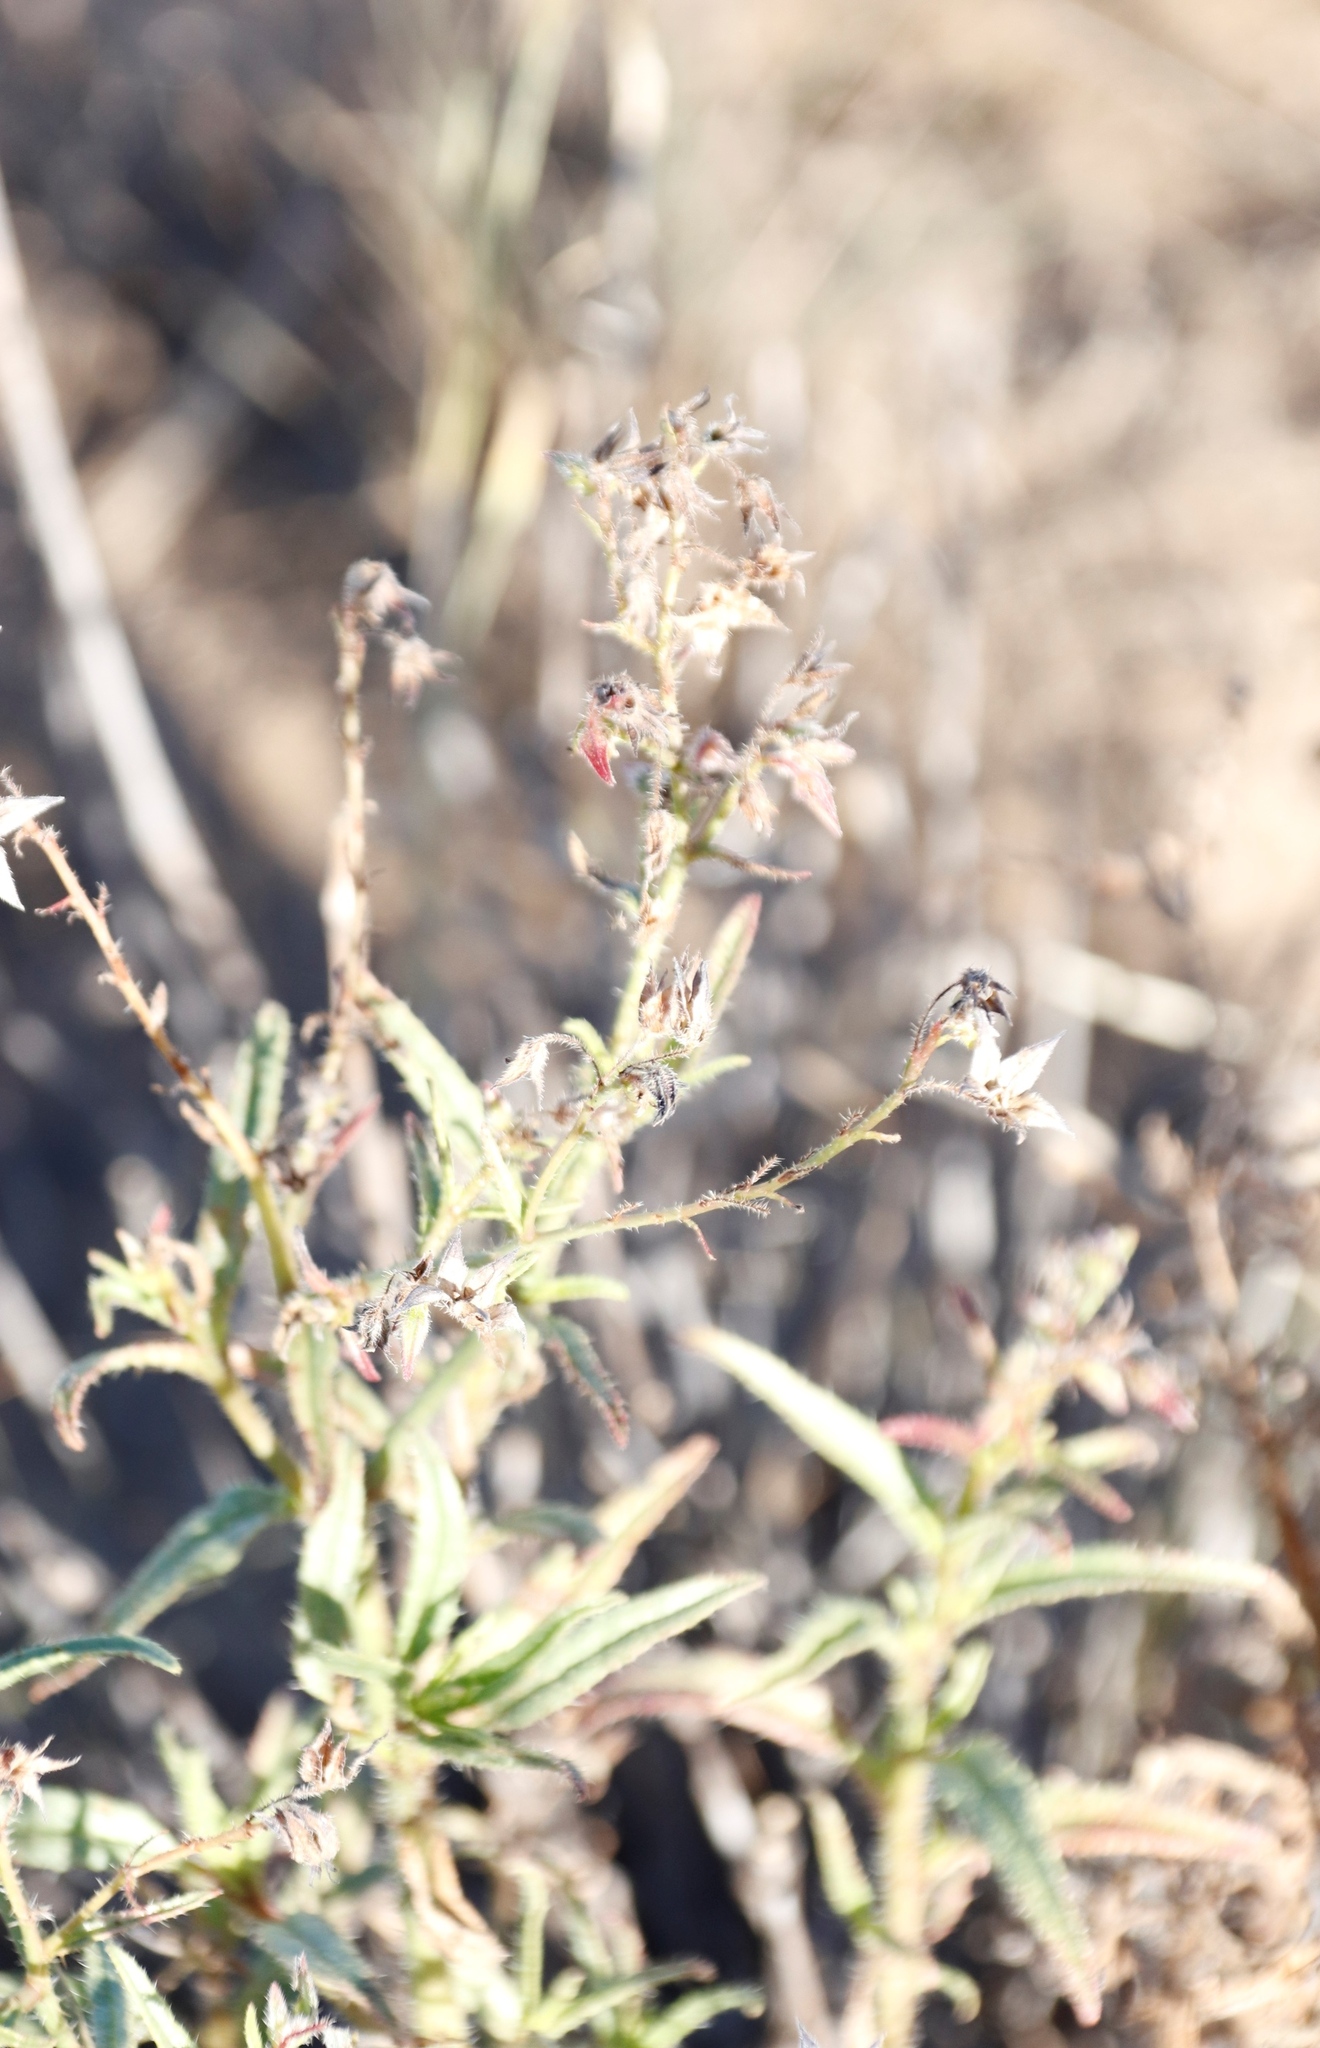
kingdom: Plantae
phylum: Tracheophyta
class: Magnoliopsida
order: Boraginales
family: Boraginaceae
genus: Trichodesma
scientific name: Trichodesma africanum
